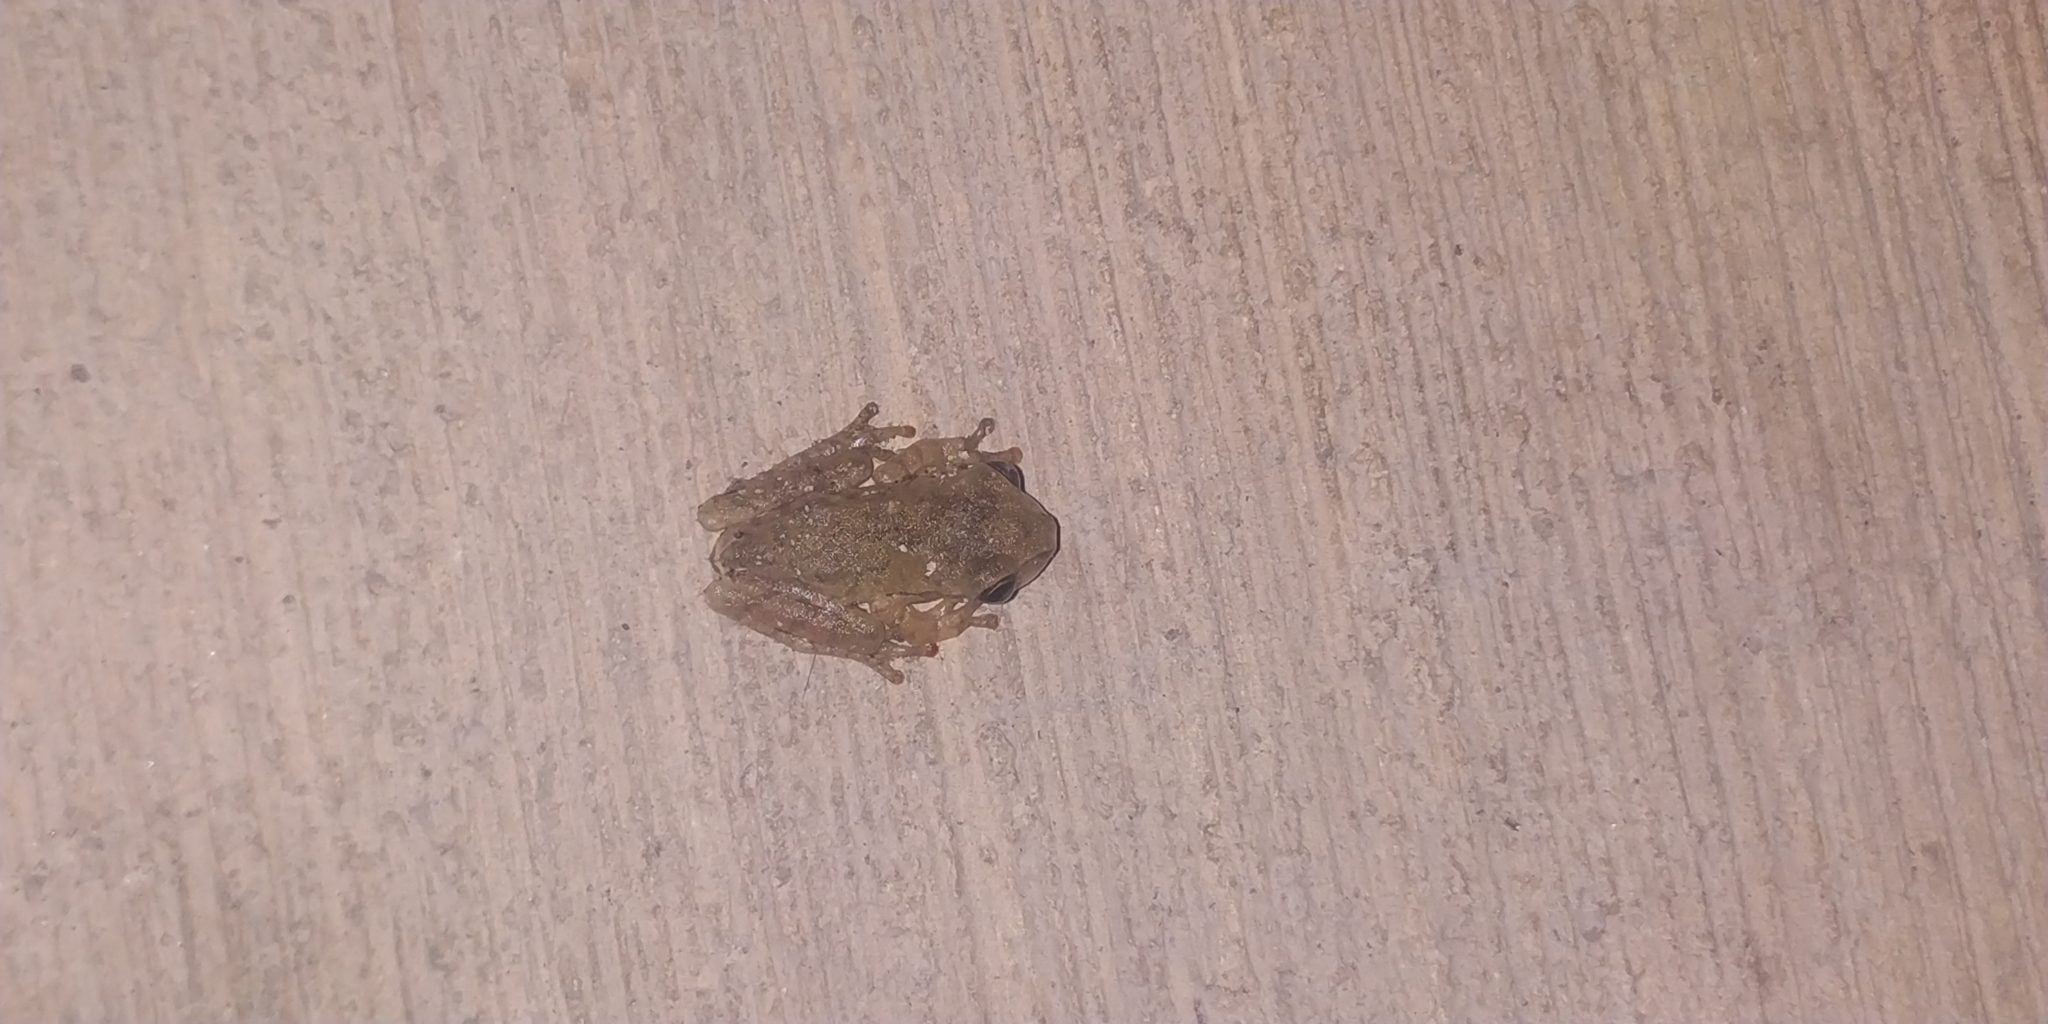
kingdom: Animalia
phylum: Chordata
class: Amphibia
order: Anura
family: Hylidae
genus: Smilisca
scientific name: Smilisca baudinii
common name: Mexican smilisca
